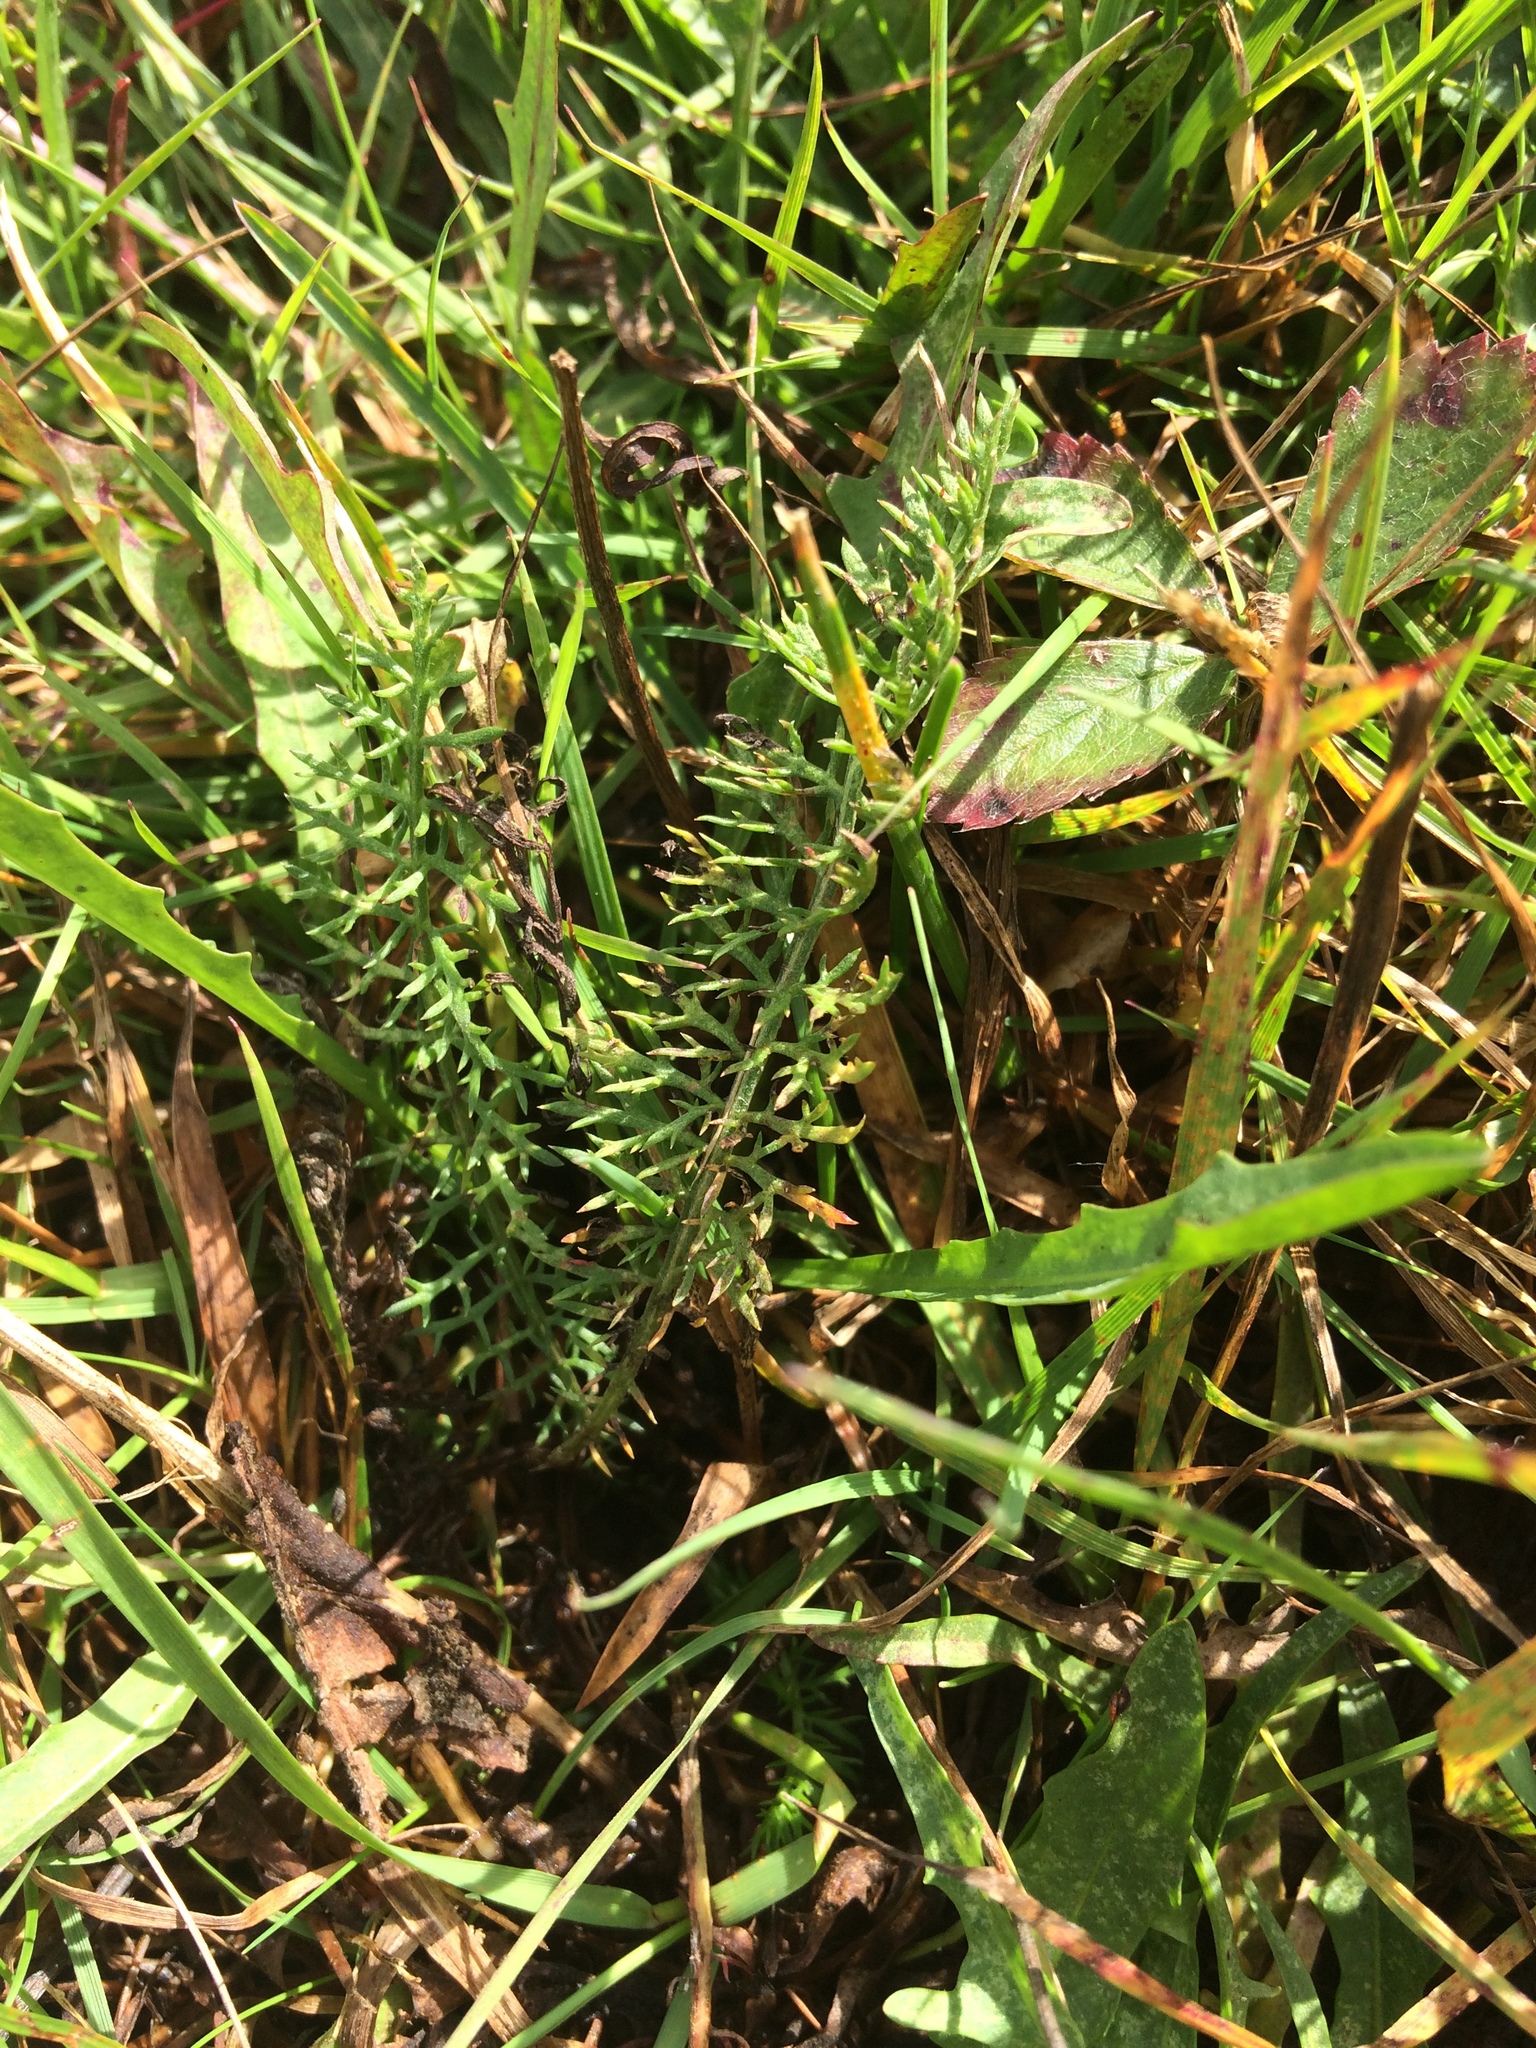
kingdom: Plantae
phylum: Tracheophyta
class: Magnoliopsida
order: Asterales
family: Asteraceae
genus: Achillea
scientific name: Achillea millefolium
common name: Yarrow
